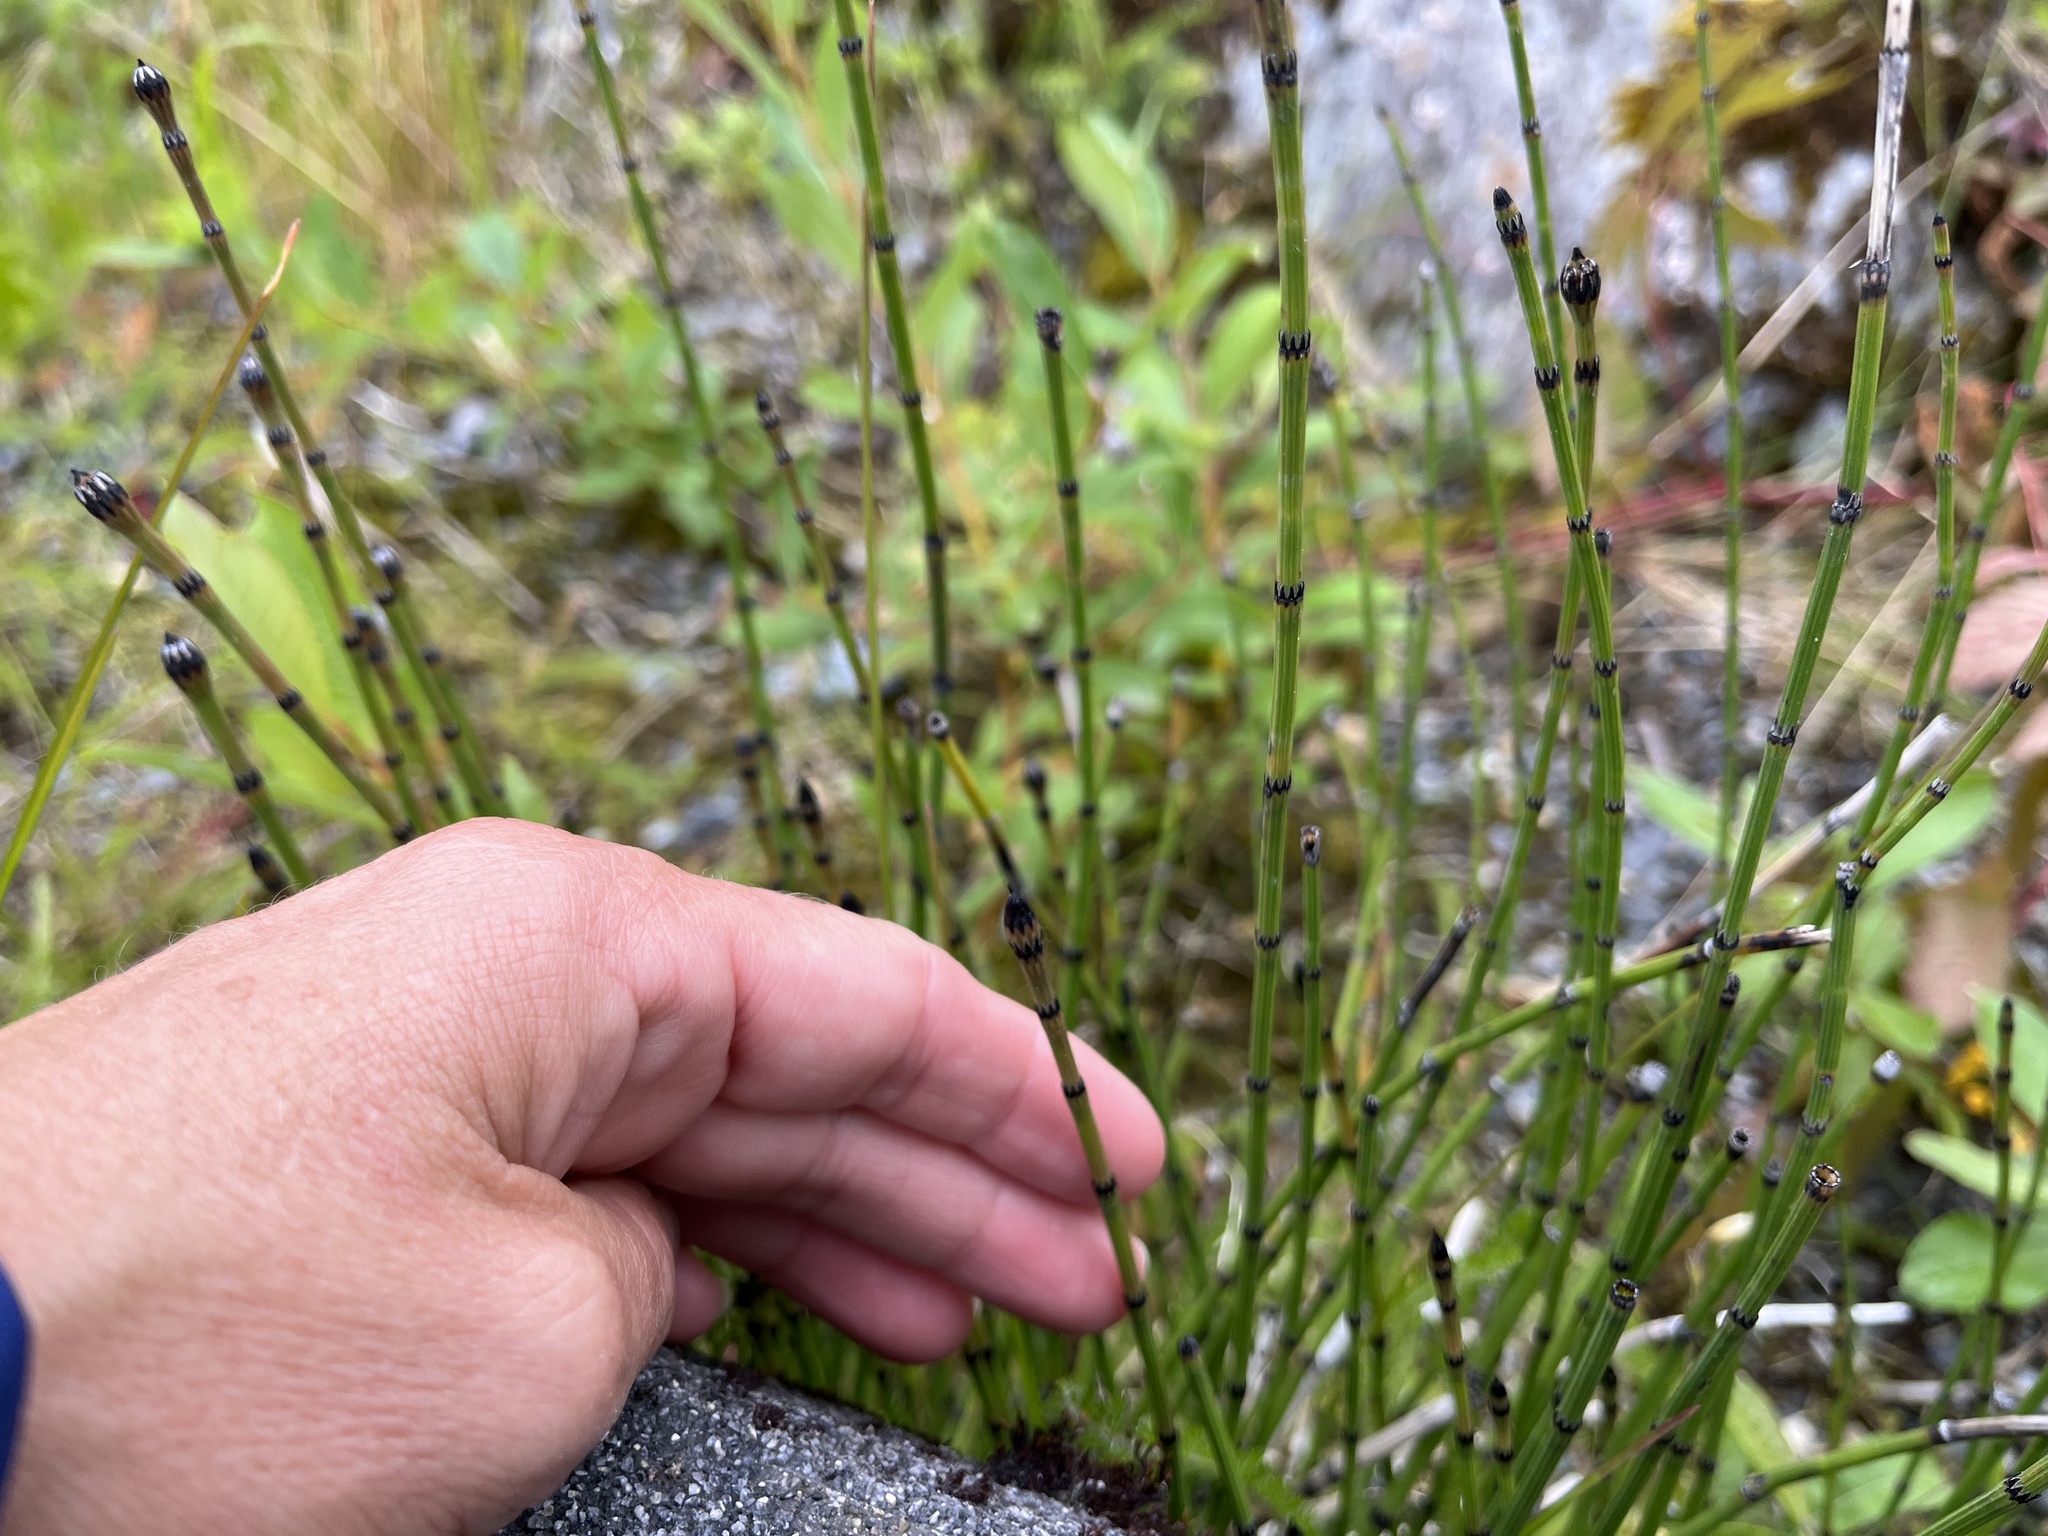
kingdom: Plantae
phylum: Tracheophyta
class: Polypodiopsida
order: Equisetales
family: Equisetaceae
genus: Equisetum
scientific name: Equisetum variegatum
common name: Variegated horsetail
